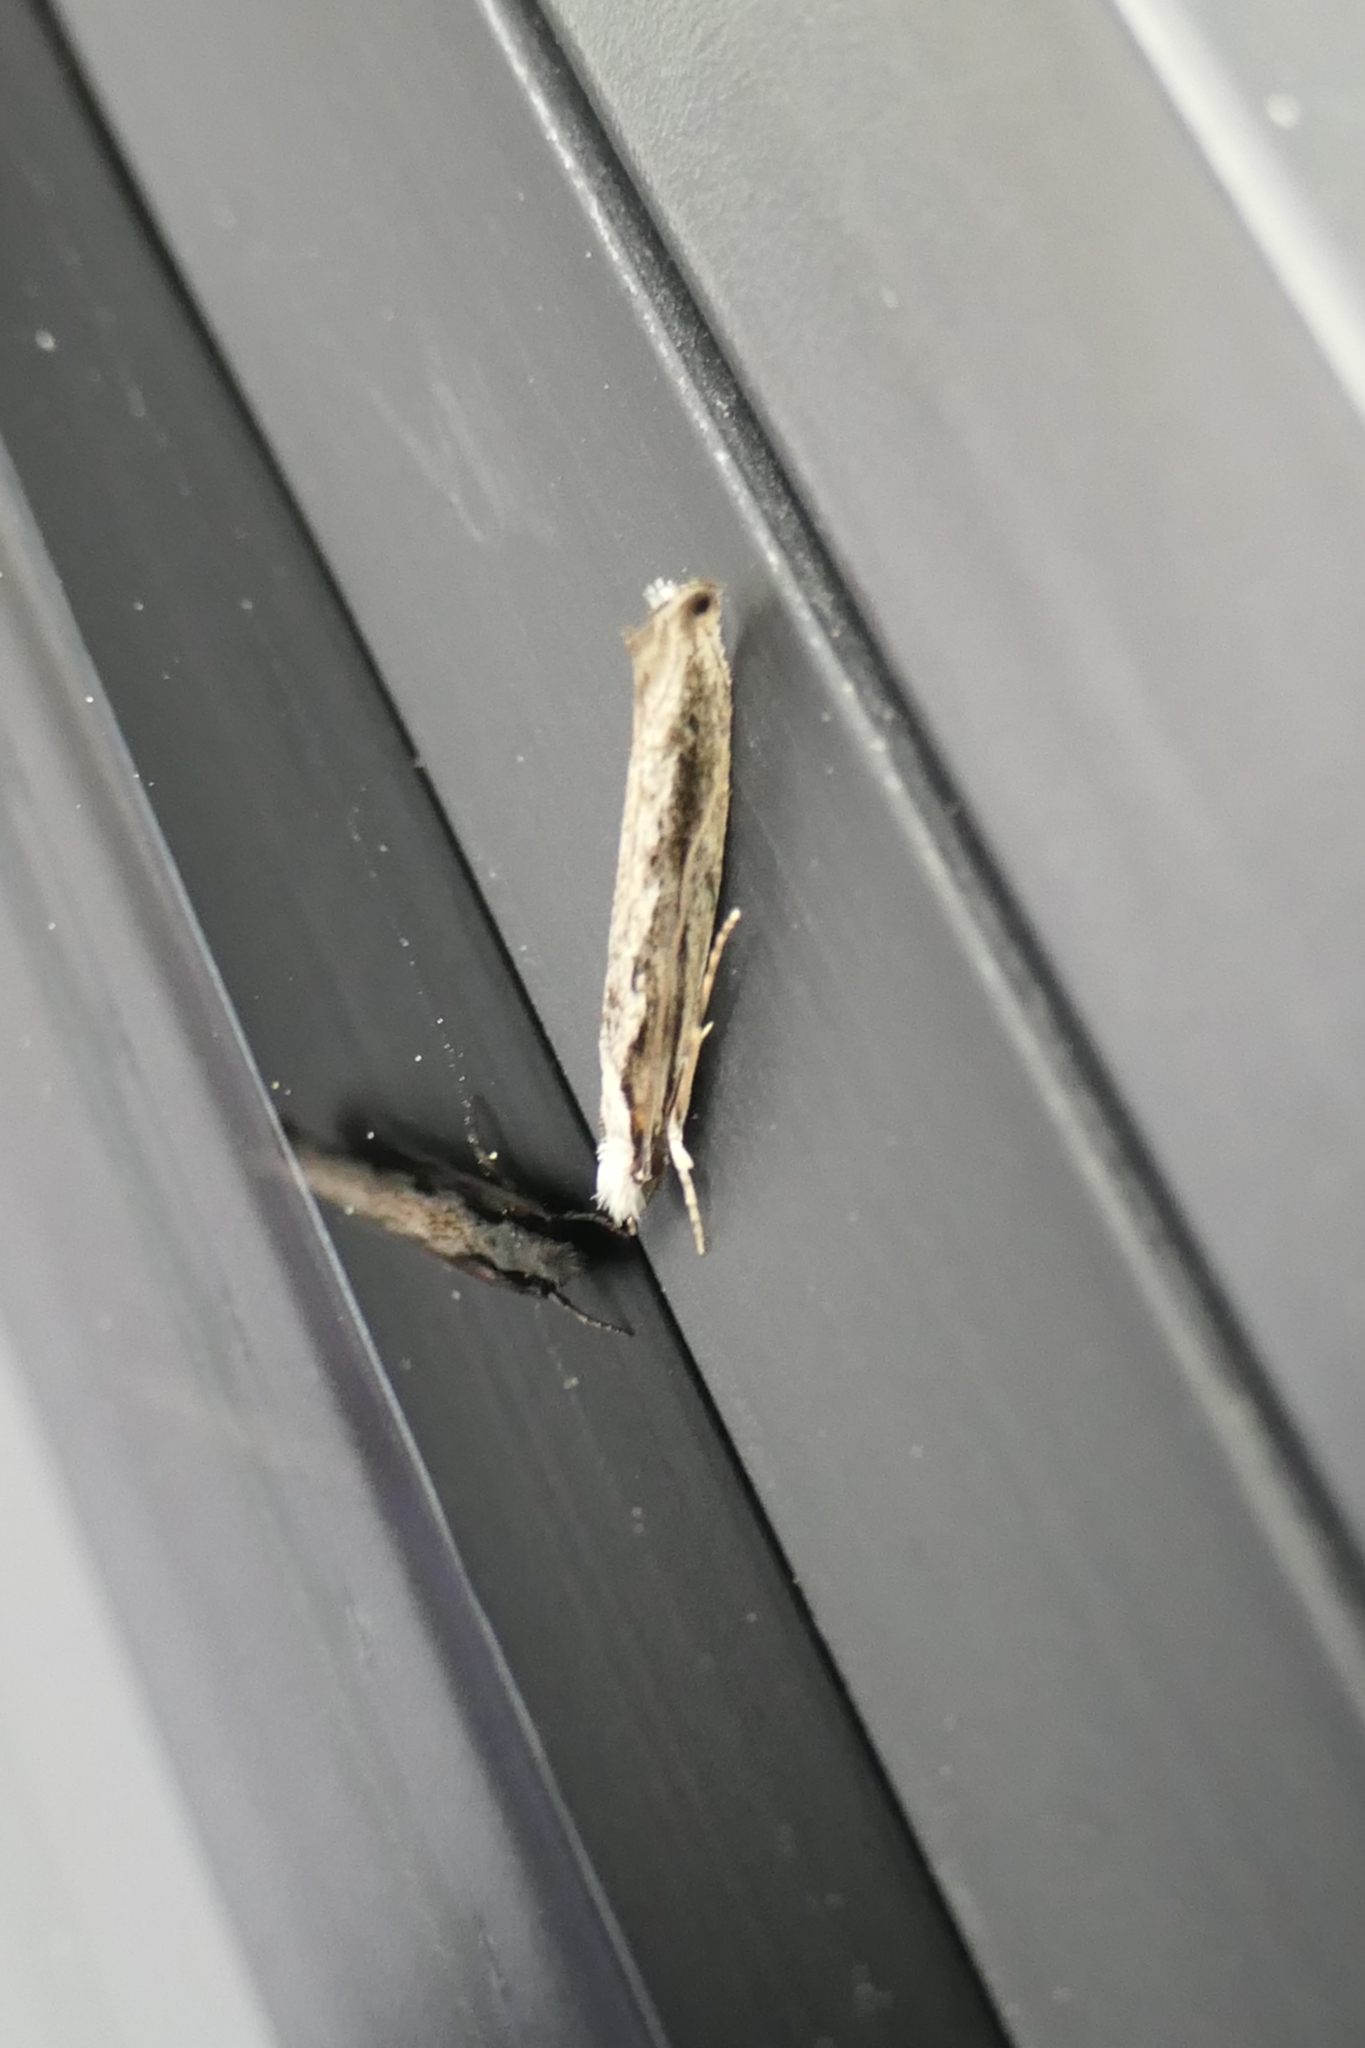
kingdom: Animalia
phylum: Arthropoda
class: Insecta
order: Lepidoptera
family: Tineidae
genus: Erechthias
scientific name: Erechthias fulguritella
